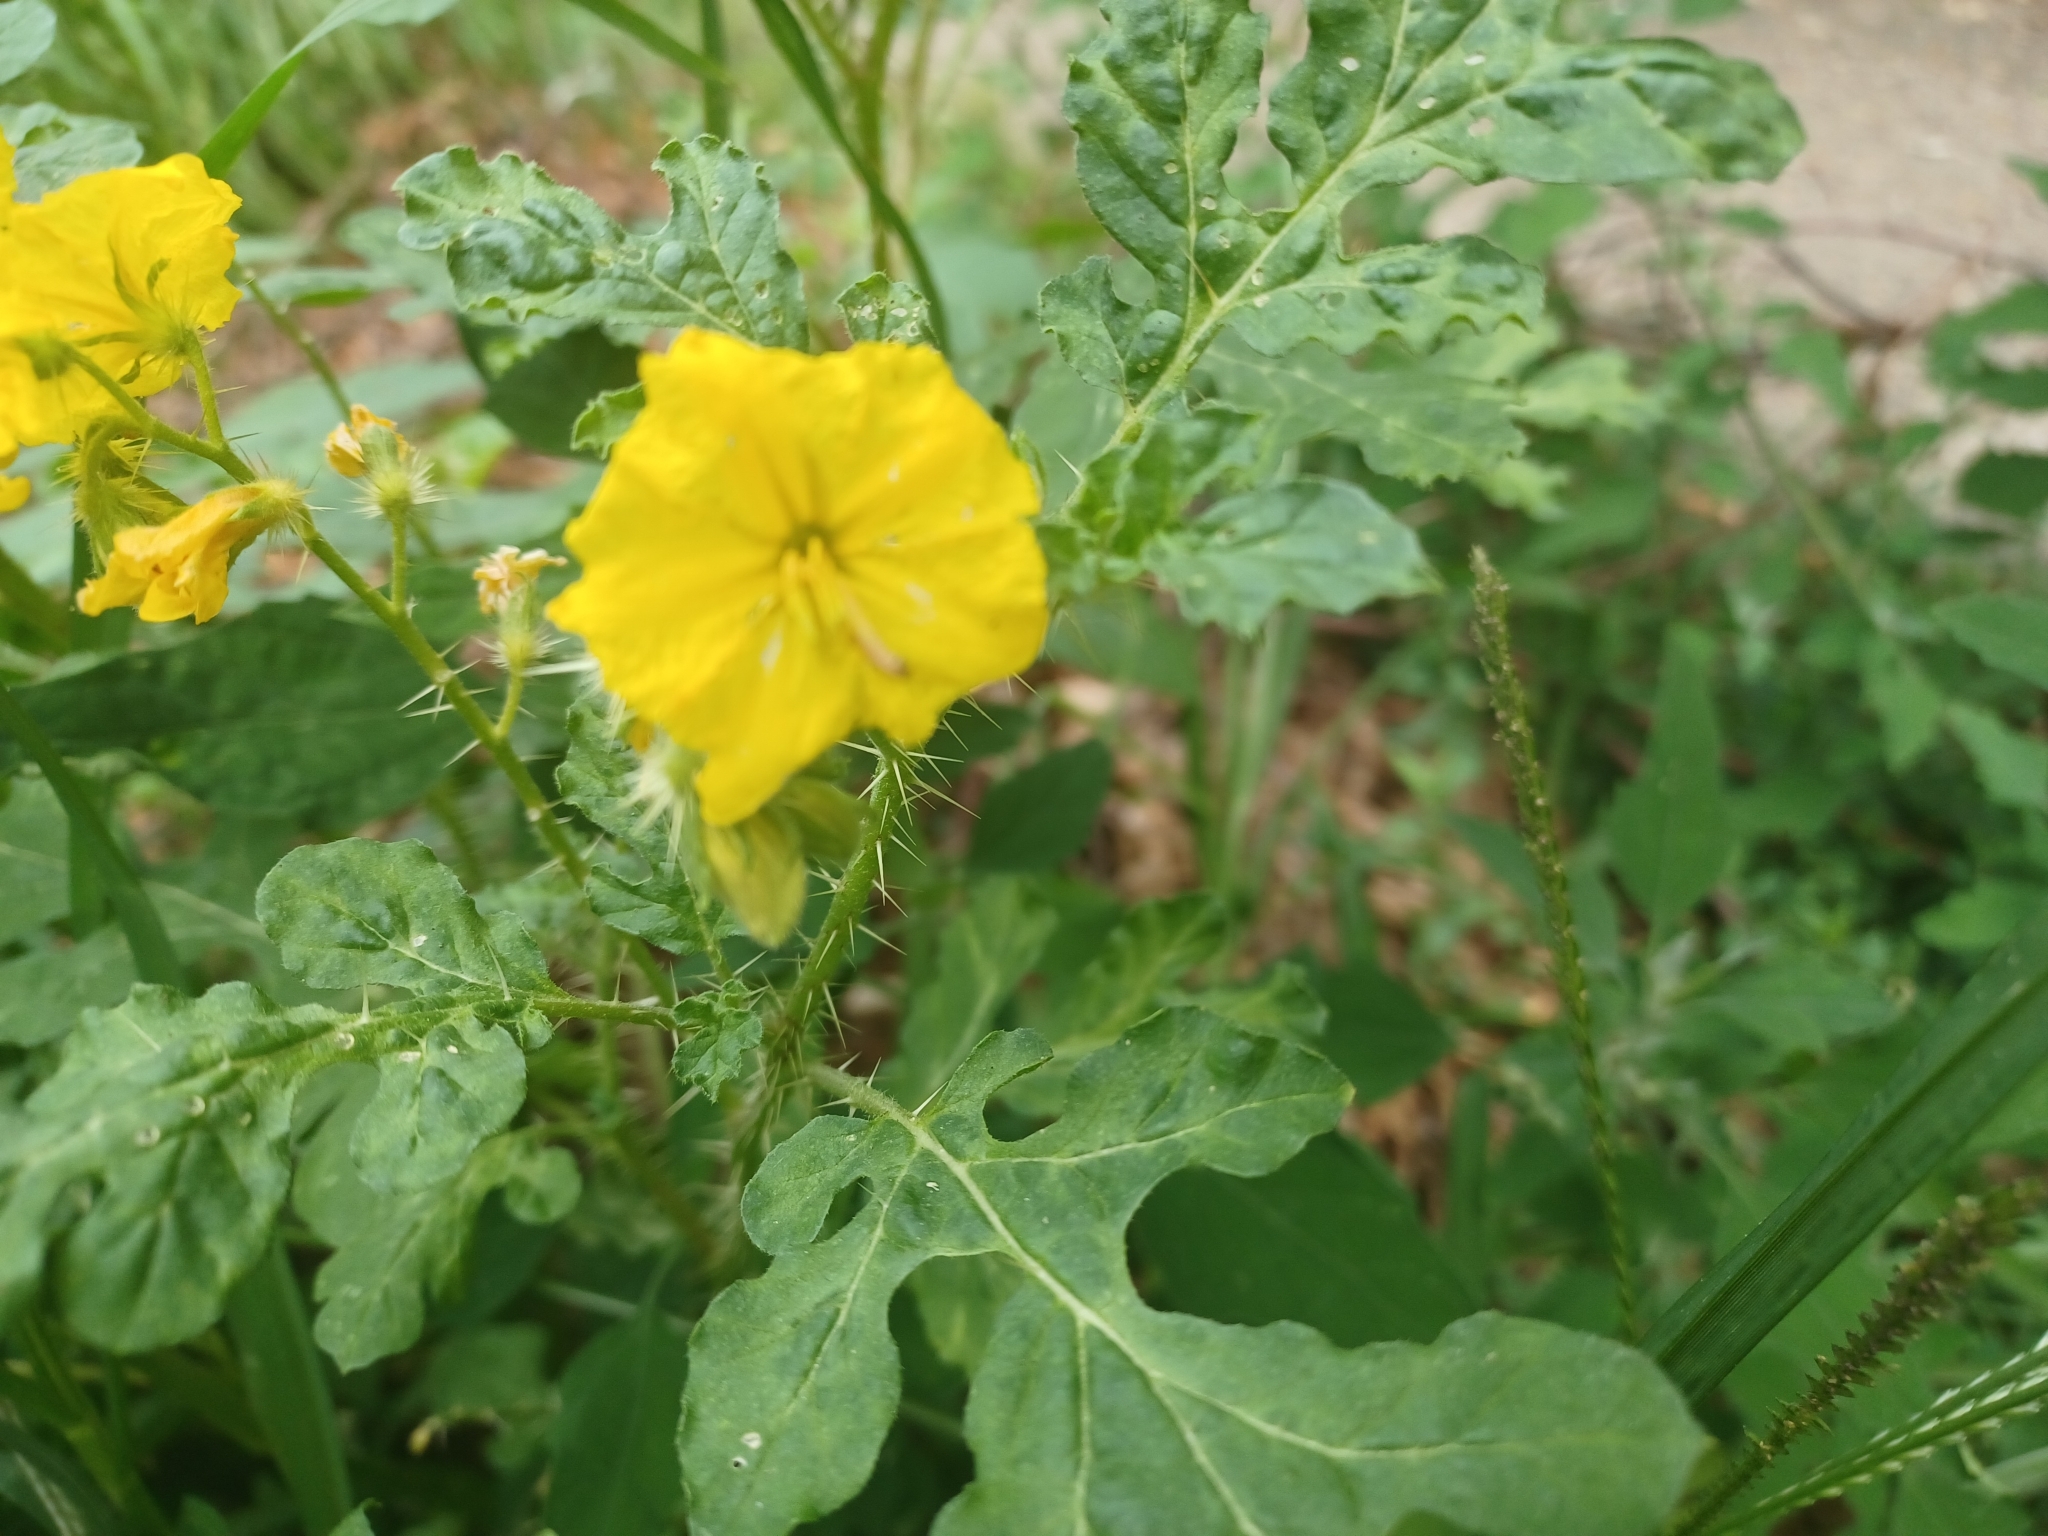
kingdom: Plantae
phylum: Tracheophyta
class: Magnoliopsida
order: Solanales
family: Solanaceae
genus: Solanum
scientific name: Solanum angustifolium
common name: Buffalobur nightshade
